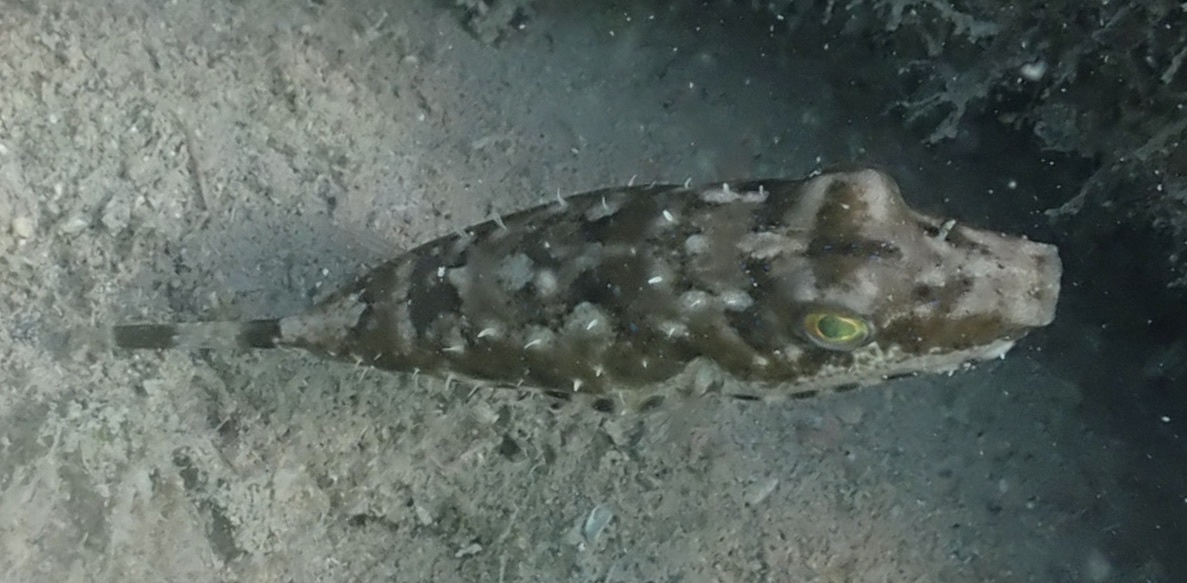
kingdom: Animalia
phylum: Chordata
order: Tetraodontiformes
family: Tetraodontidae
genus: Sphoeroides
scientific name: Sphoeroides spengleri
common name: Bandtail puffer
